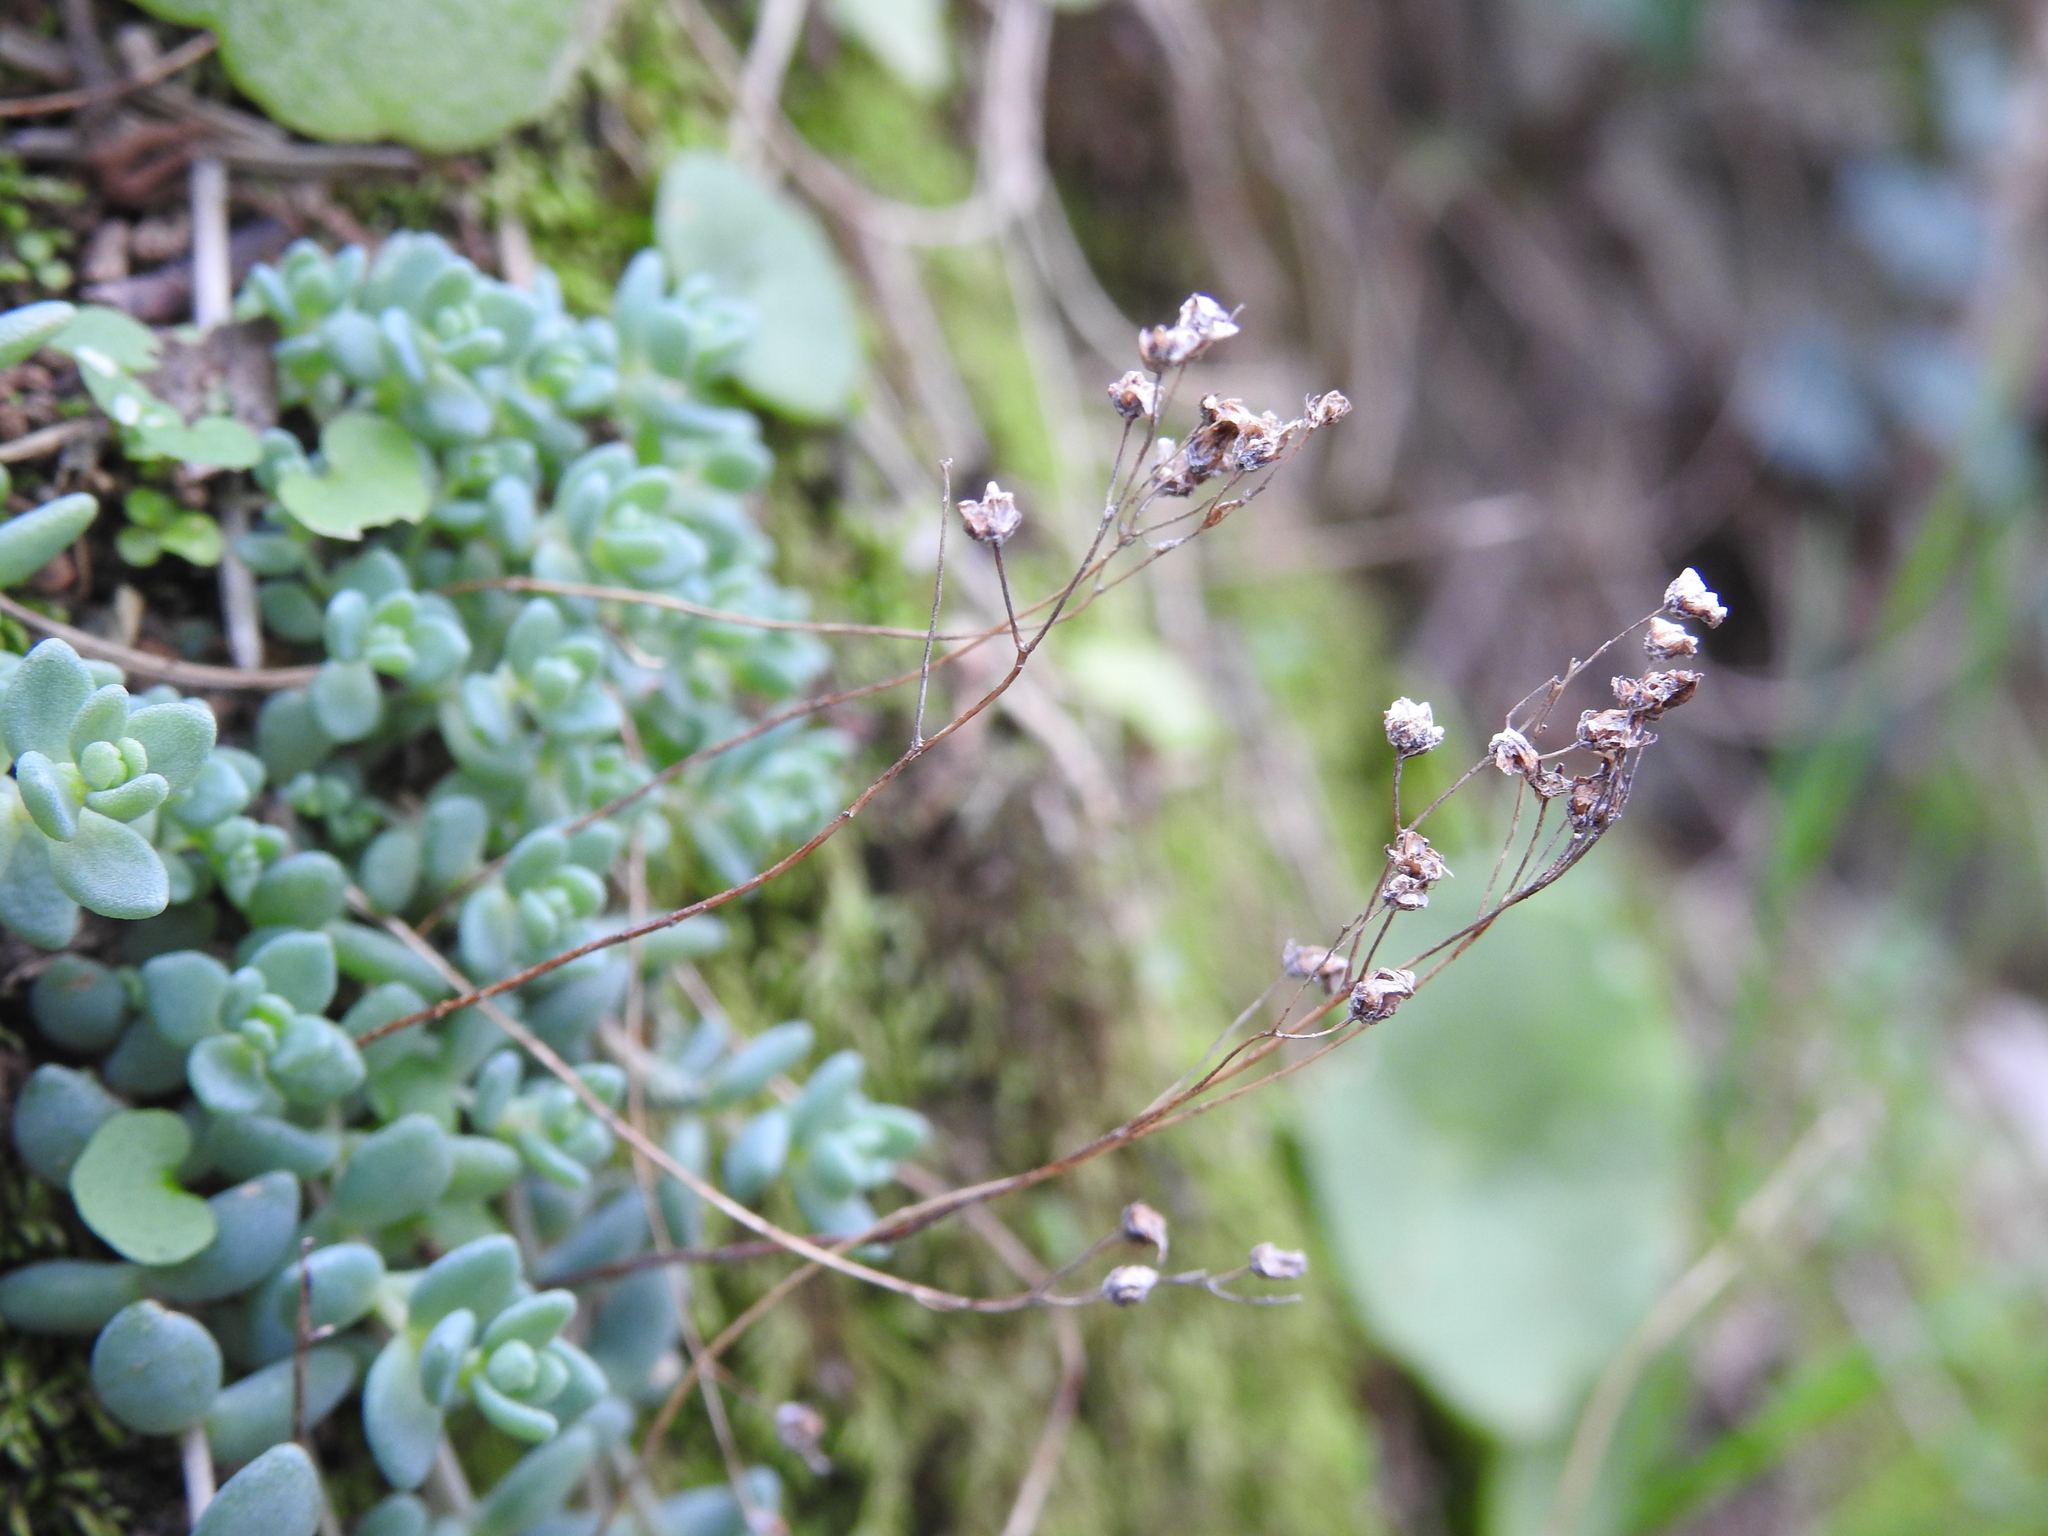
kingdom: Plantae
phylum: Tracheophyta
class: Magnoliopsida
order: Saxifragales
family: Crassulaceae
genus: Sedum
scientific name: Sedum dasyphyllum
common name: Thick-leaf stonecrop
